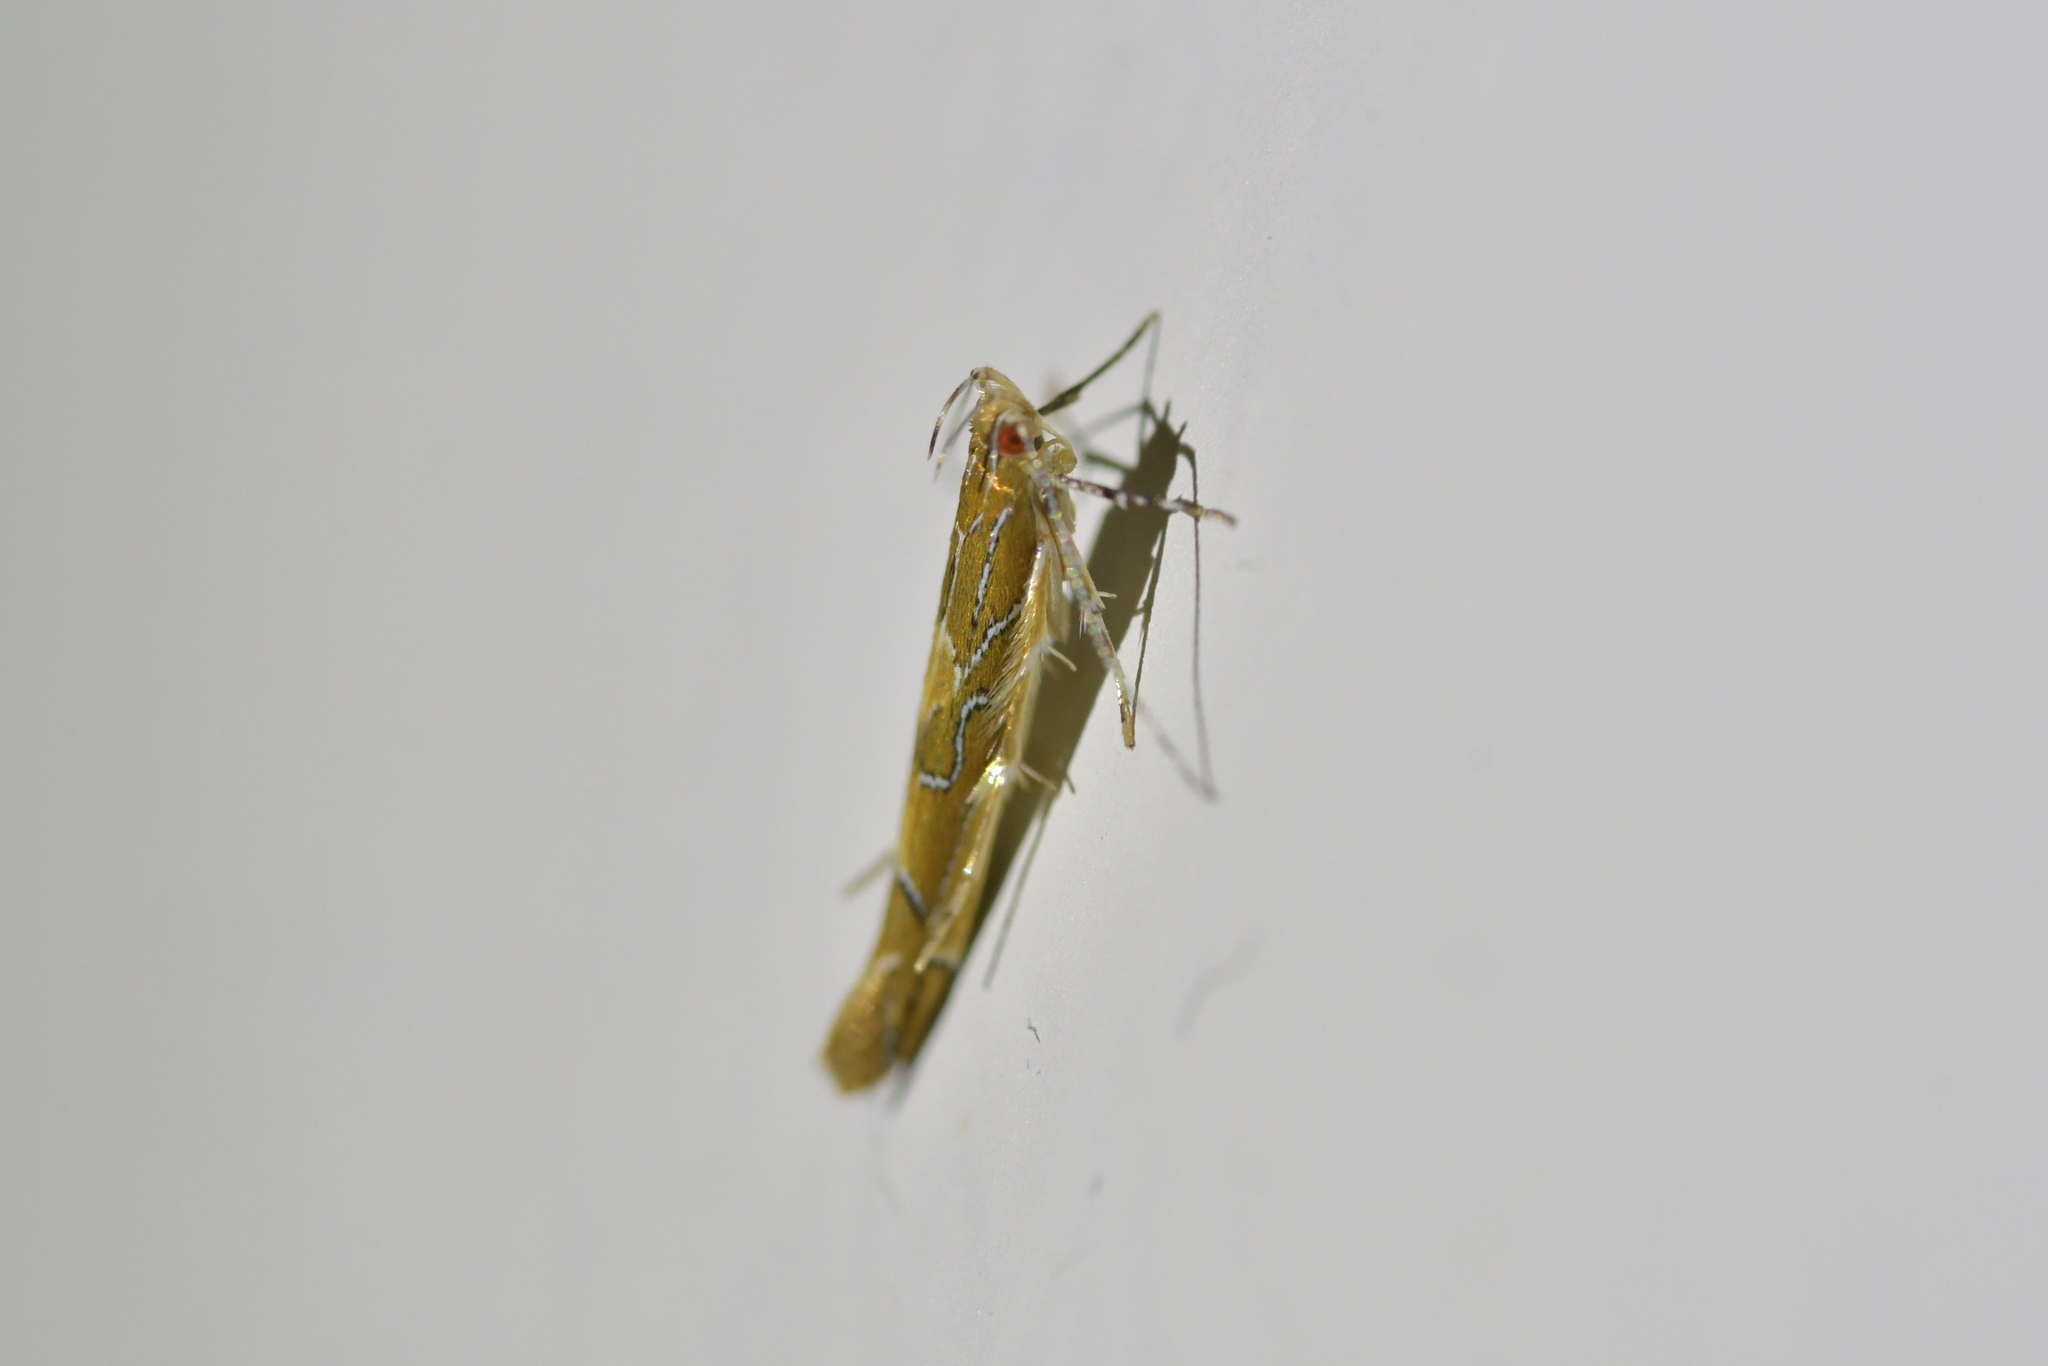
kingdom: Animalia
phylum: Arthropoda
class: Insecta
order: Lepidoptera
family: Cosmopterigidae
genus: Pyroderces
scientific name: Pyroderces apparitella
